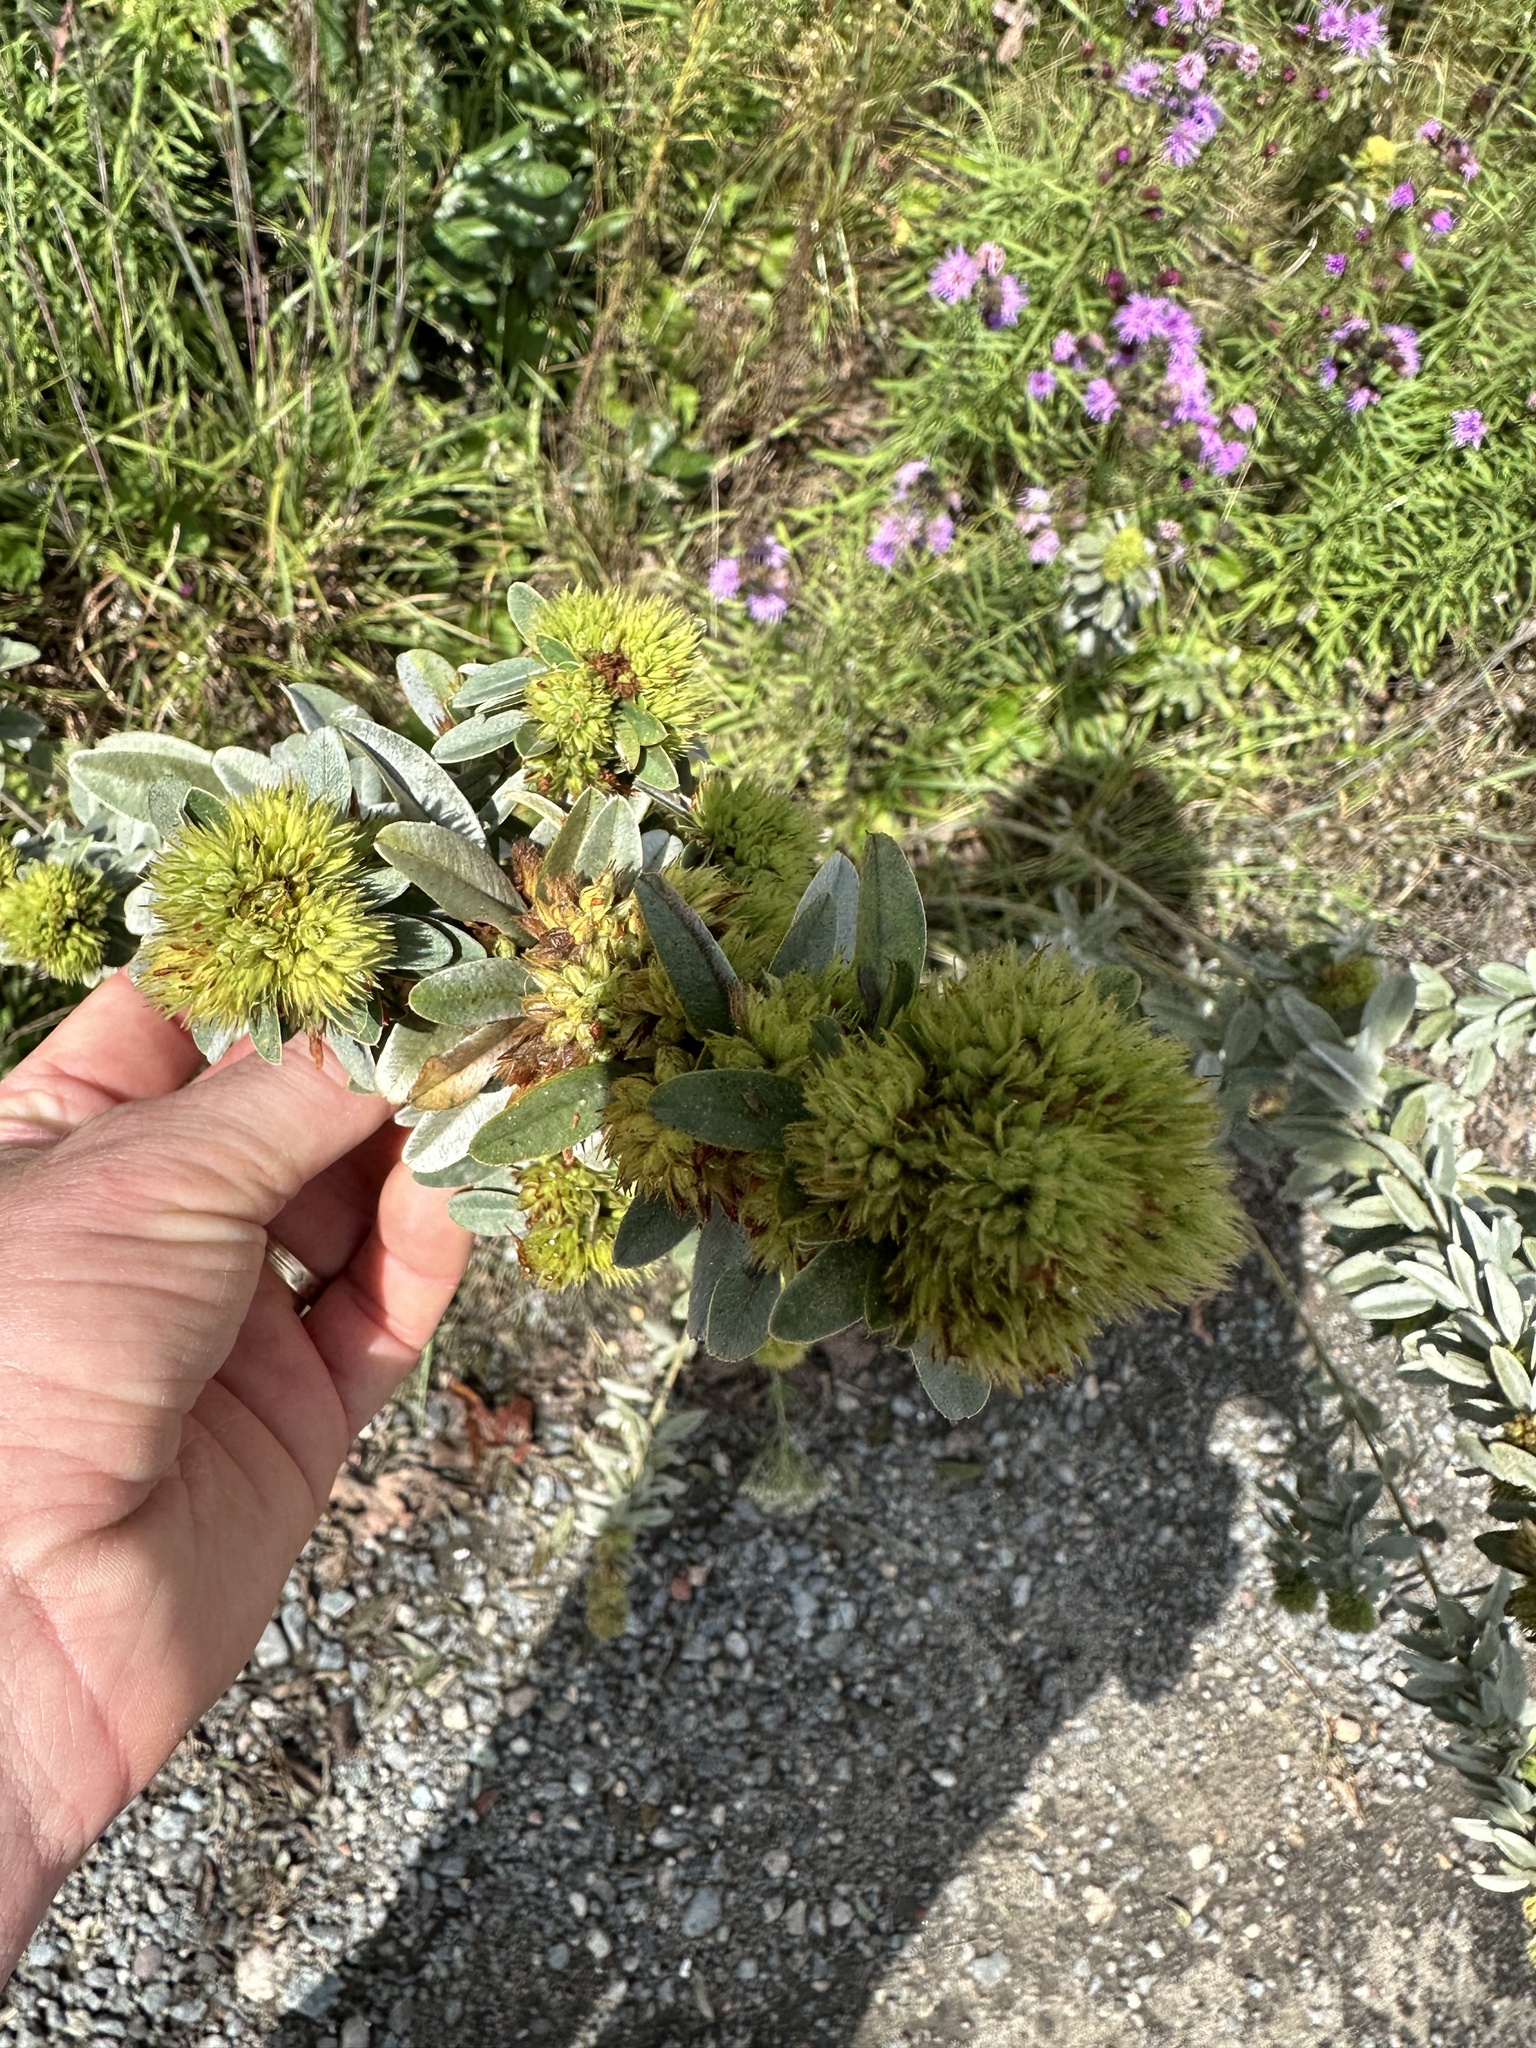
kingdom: Plantae
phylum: Tracheophyta
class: Magnoliopsida
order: Fabales
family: Fabaceae
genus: Lespedeza
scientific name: Lespedeza capitata
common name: Dusty clover
